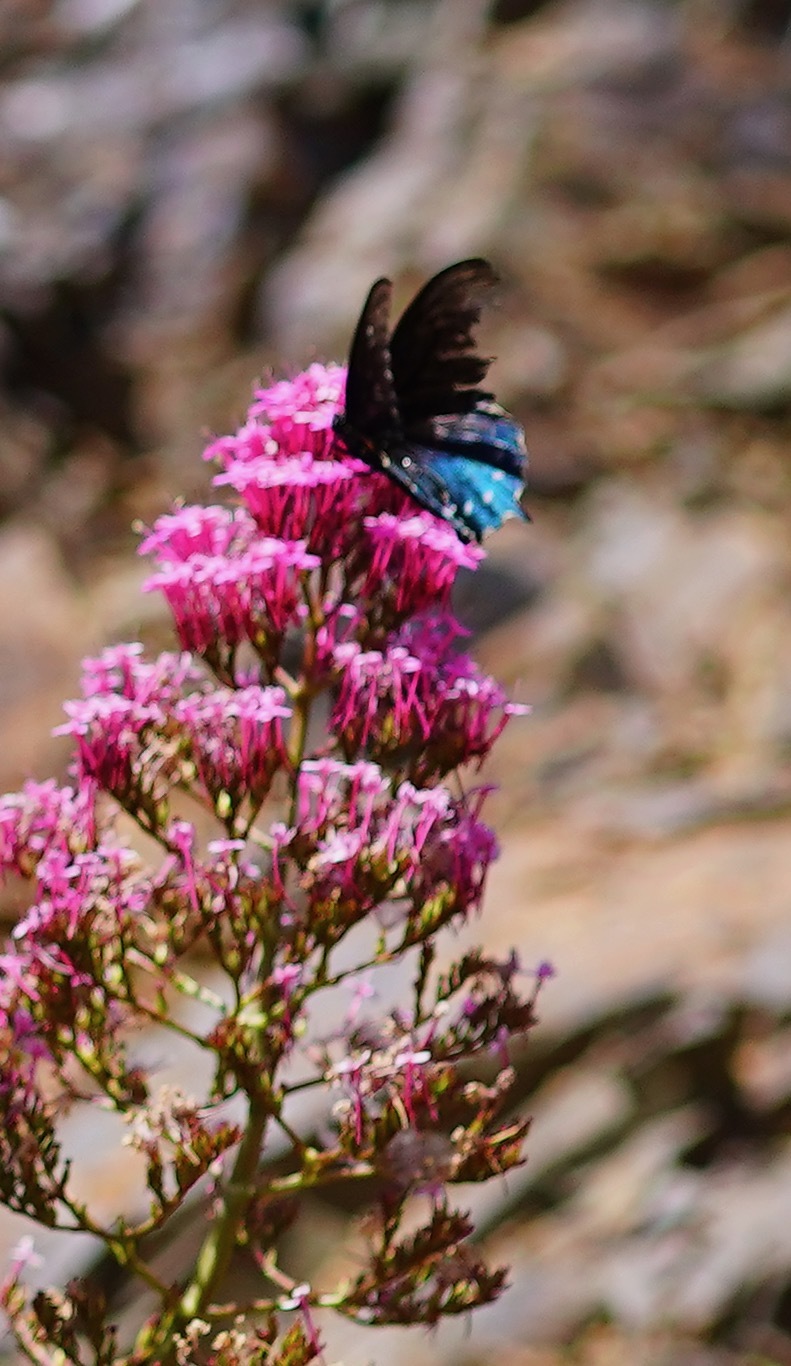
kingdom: Animalia
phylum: Arthropoda
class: Insecta
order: Lepidoptera
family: Papilionidae
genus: Battus
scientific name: Battus philenor
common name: Pipevine swallowtail
